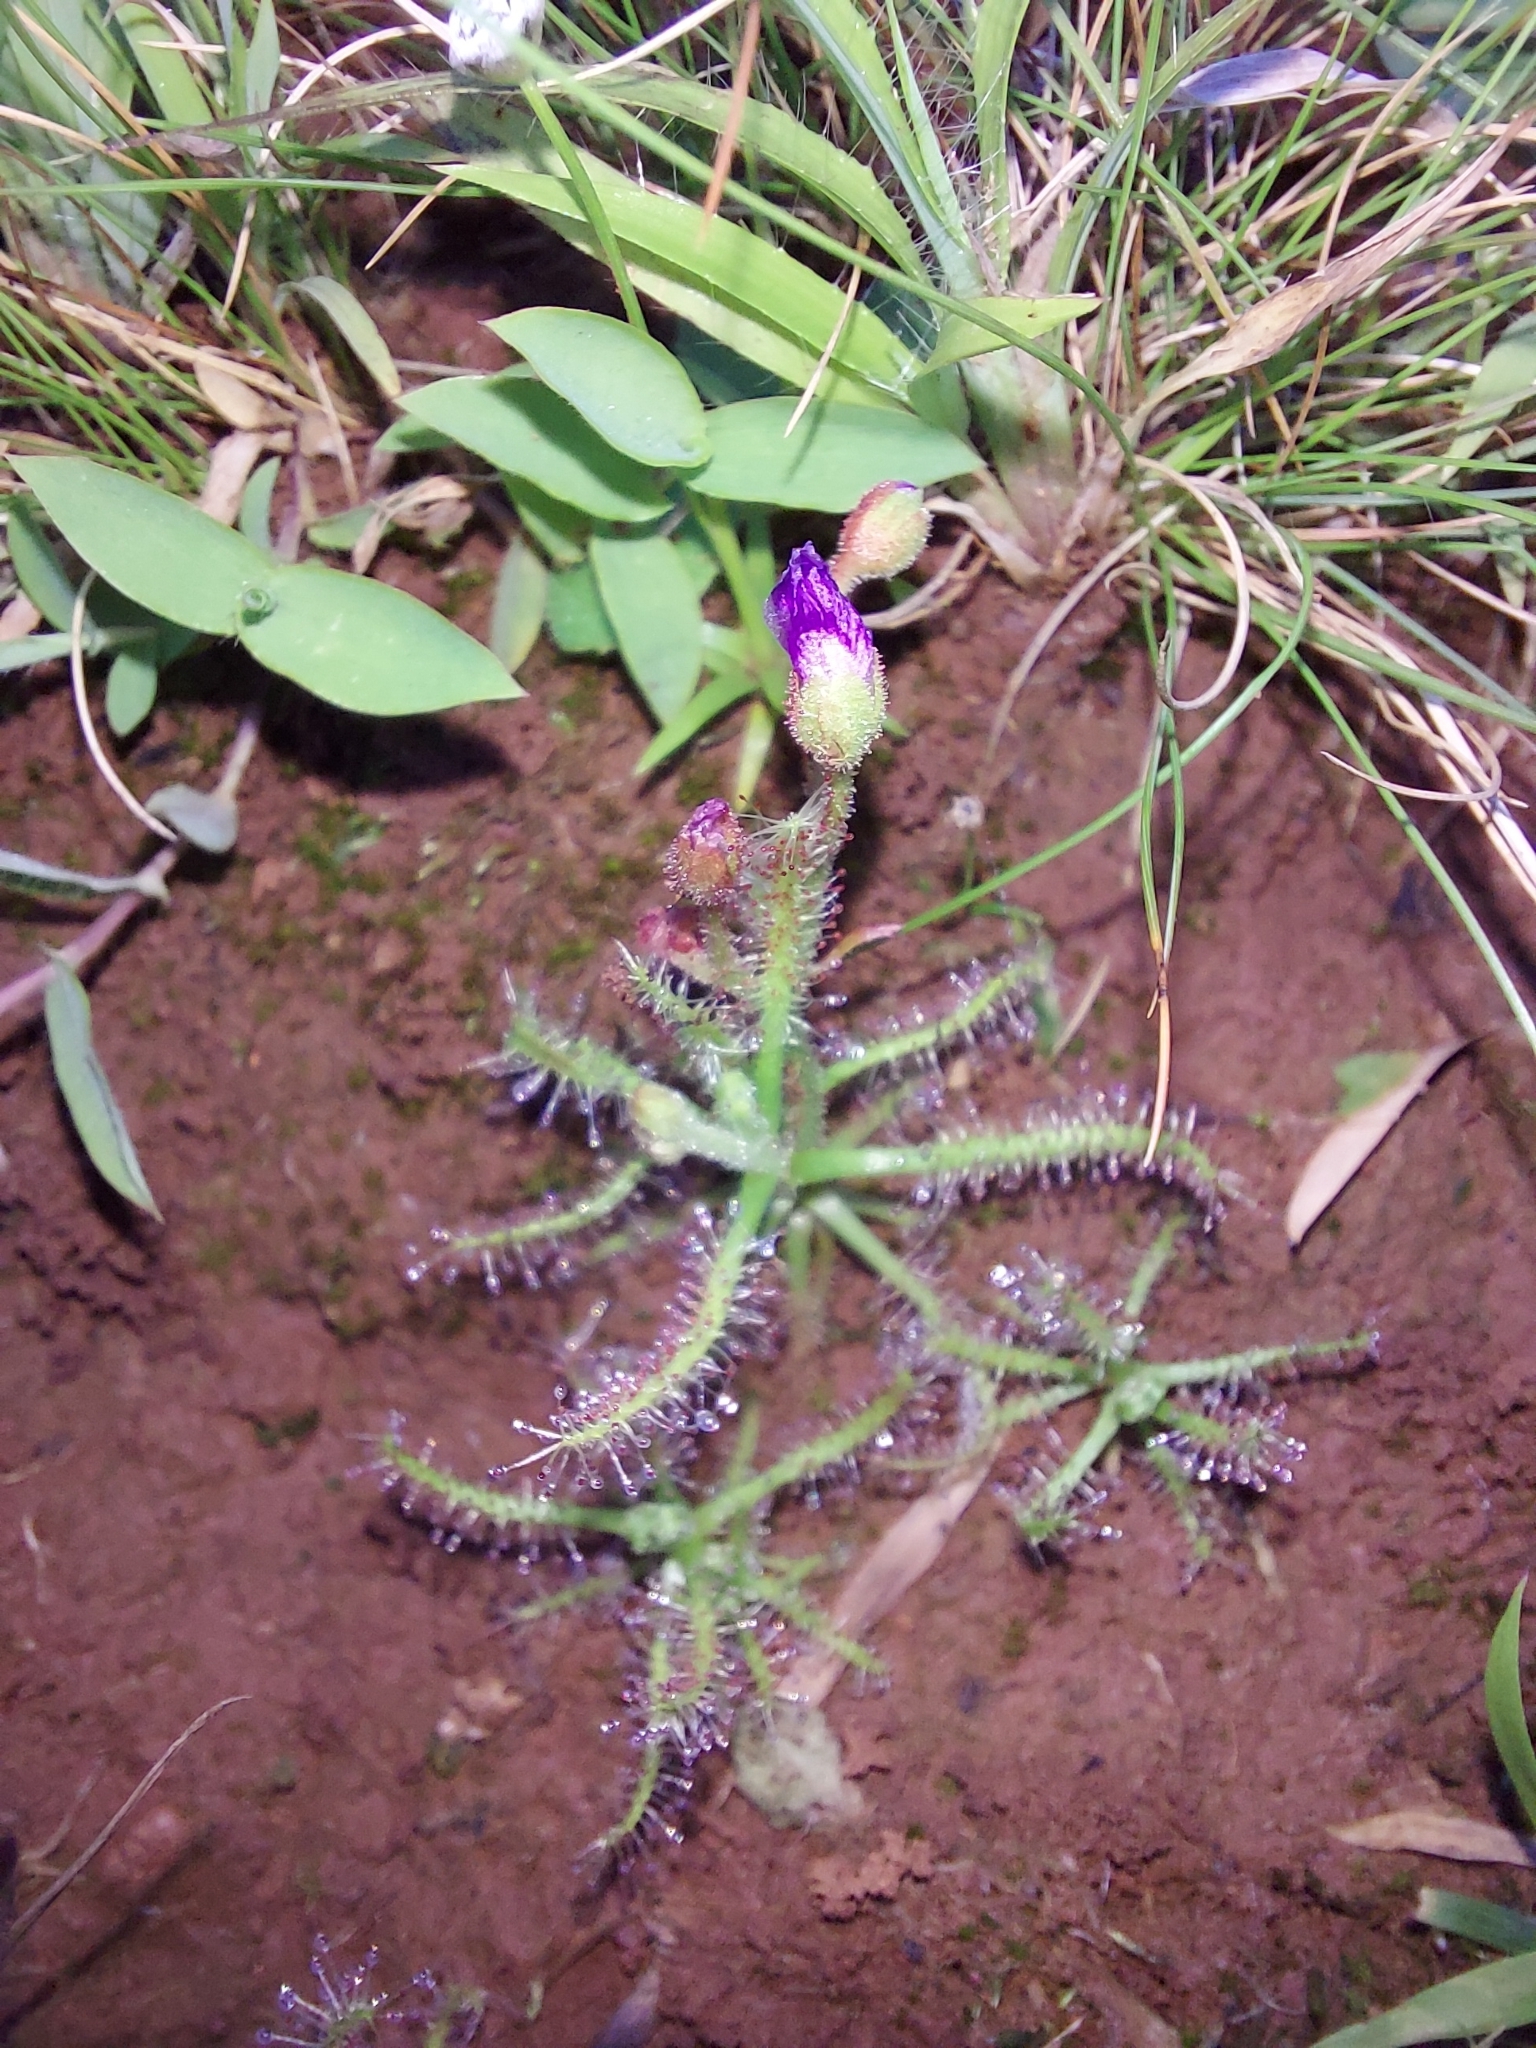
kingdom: Plantae
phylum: Tracheophyta
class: Magnoliopsida
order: Caryophyllales
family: Droseraceae
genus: Drosera
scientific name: Drosera indica
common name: Indian sundew
